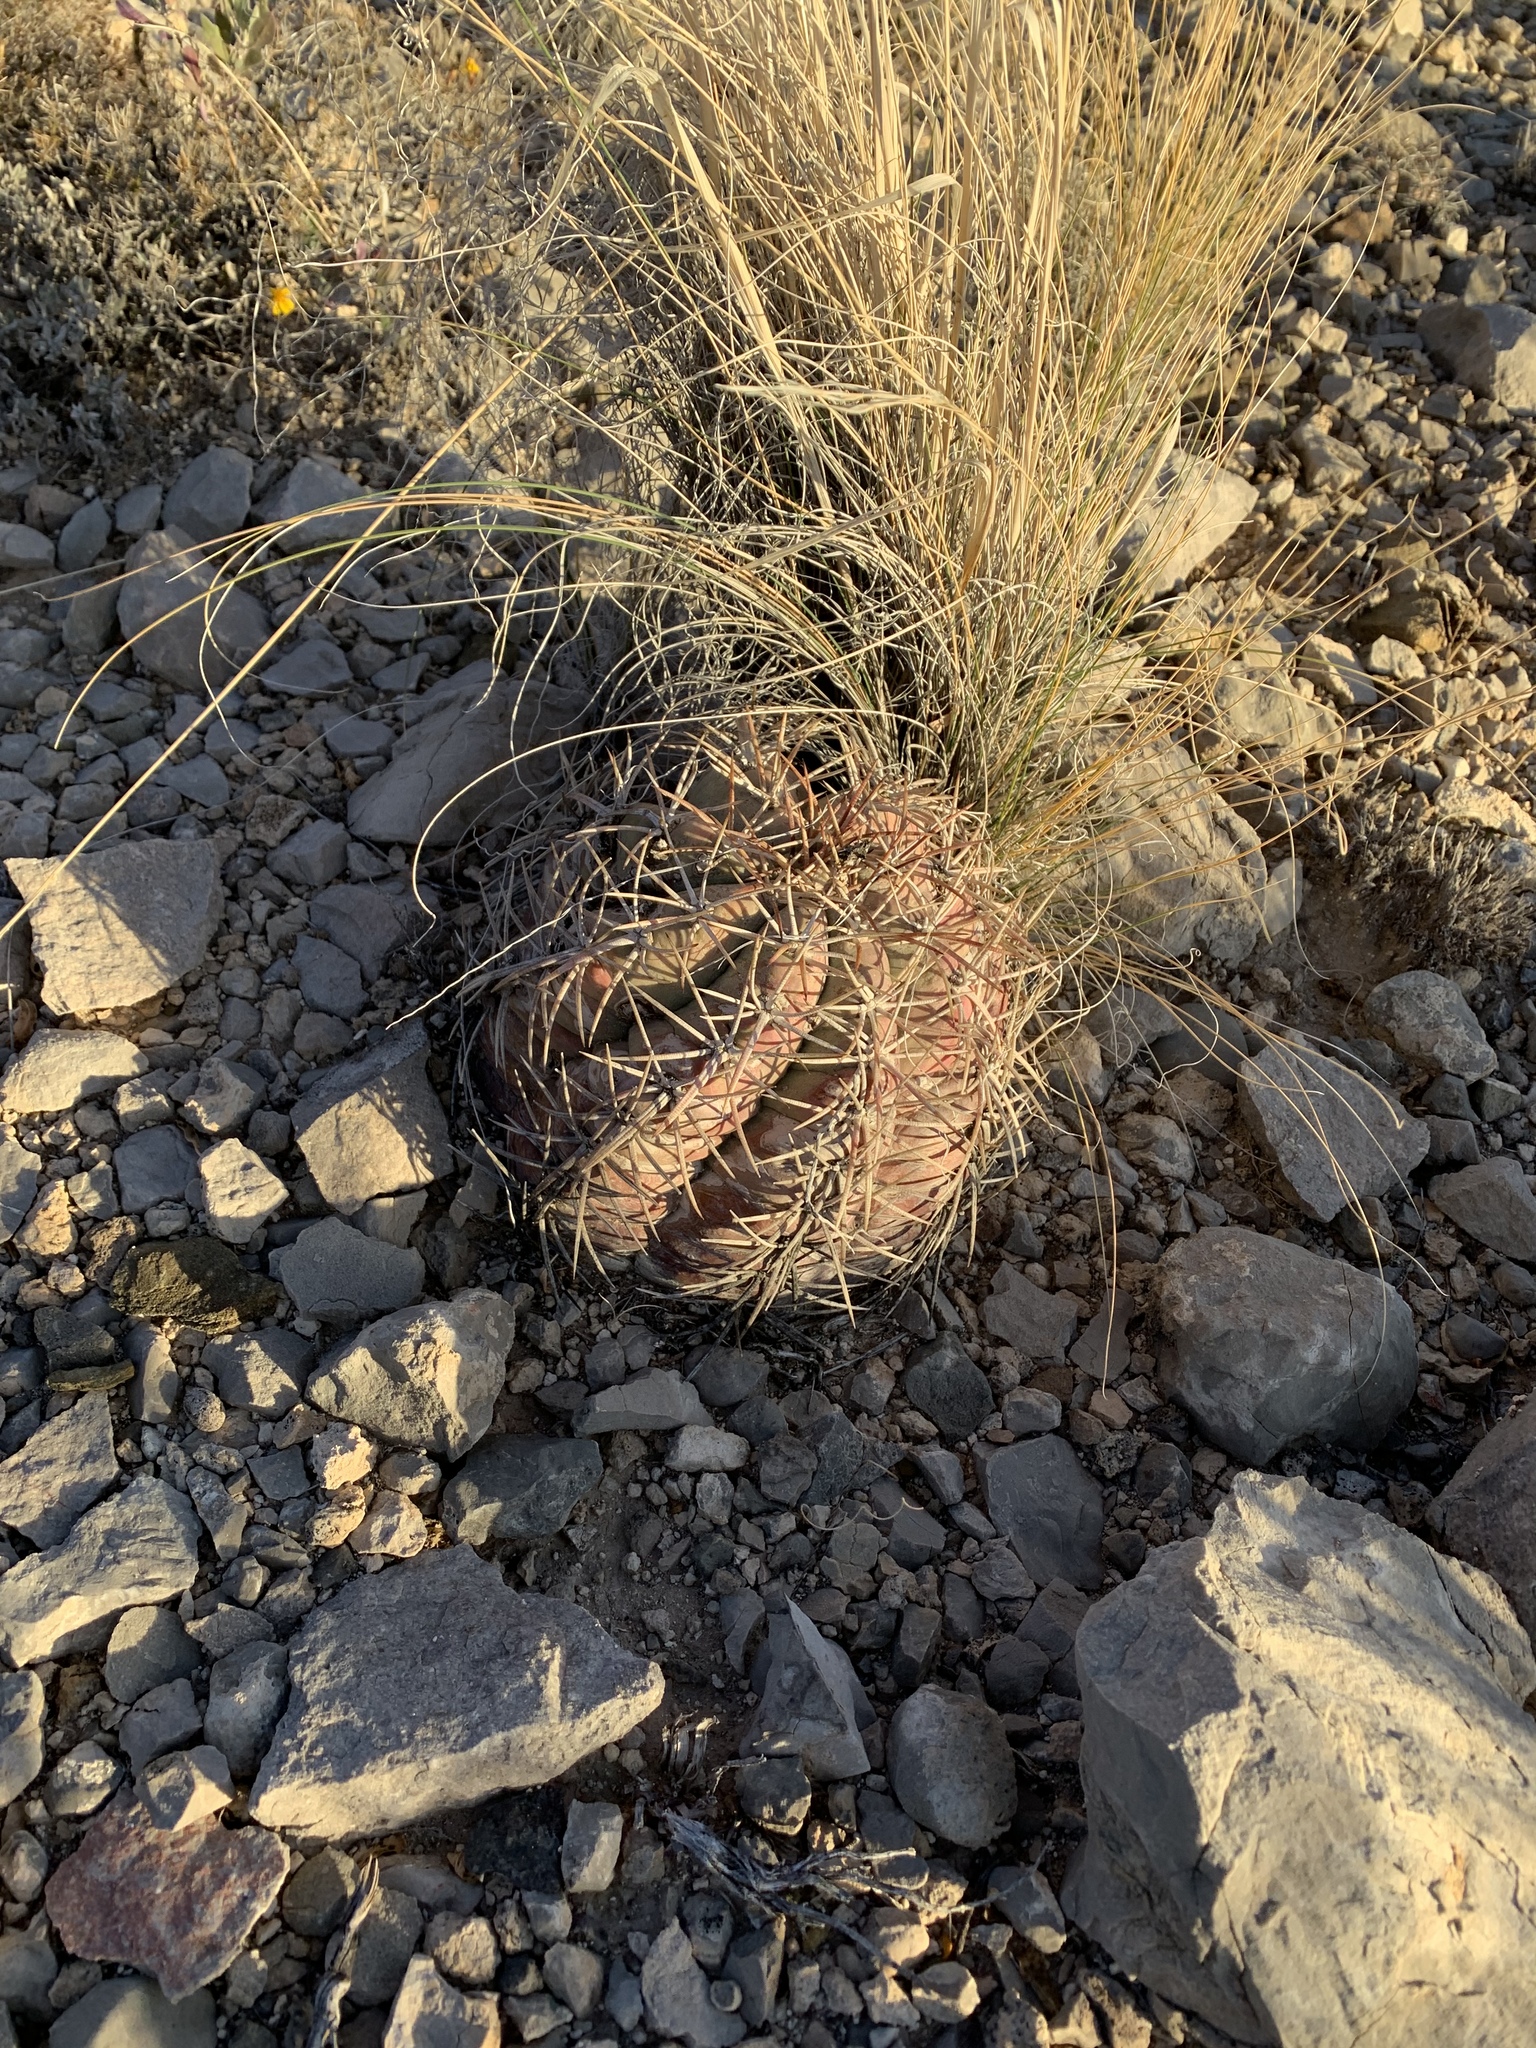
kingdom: Plantae
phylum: Tracheophyta
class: Magnoliopsida
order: Caryophyllales
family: Cactaceae
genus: Echinocactus
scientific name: Echinocactus horizonthalonius
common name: Devilshead
